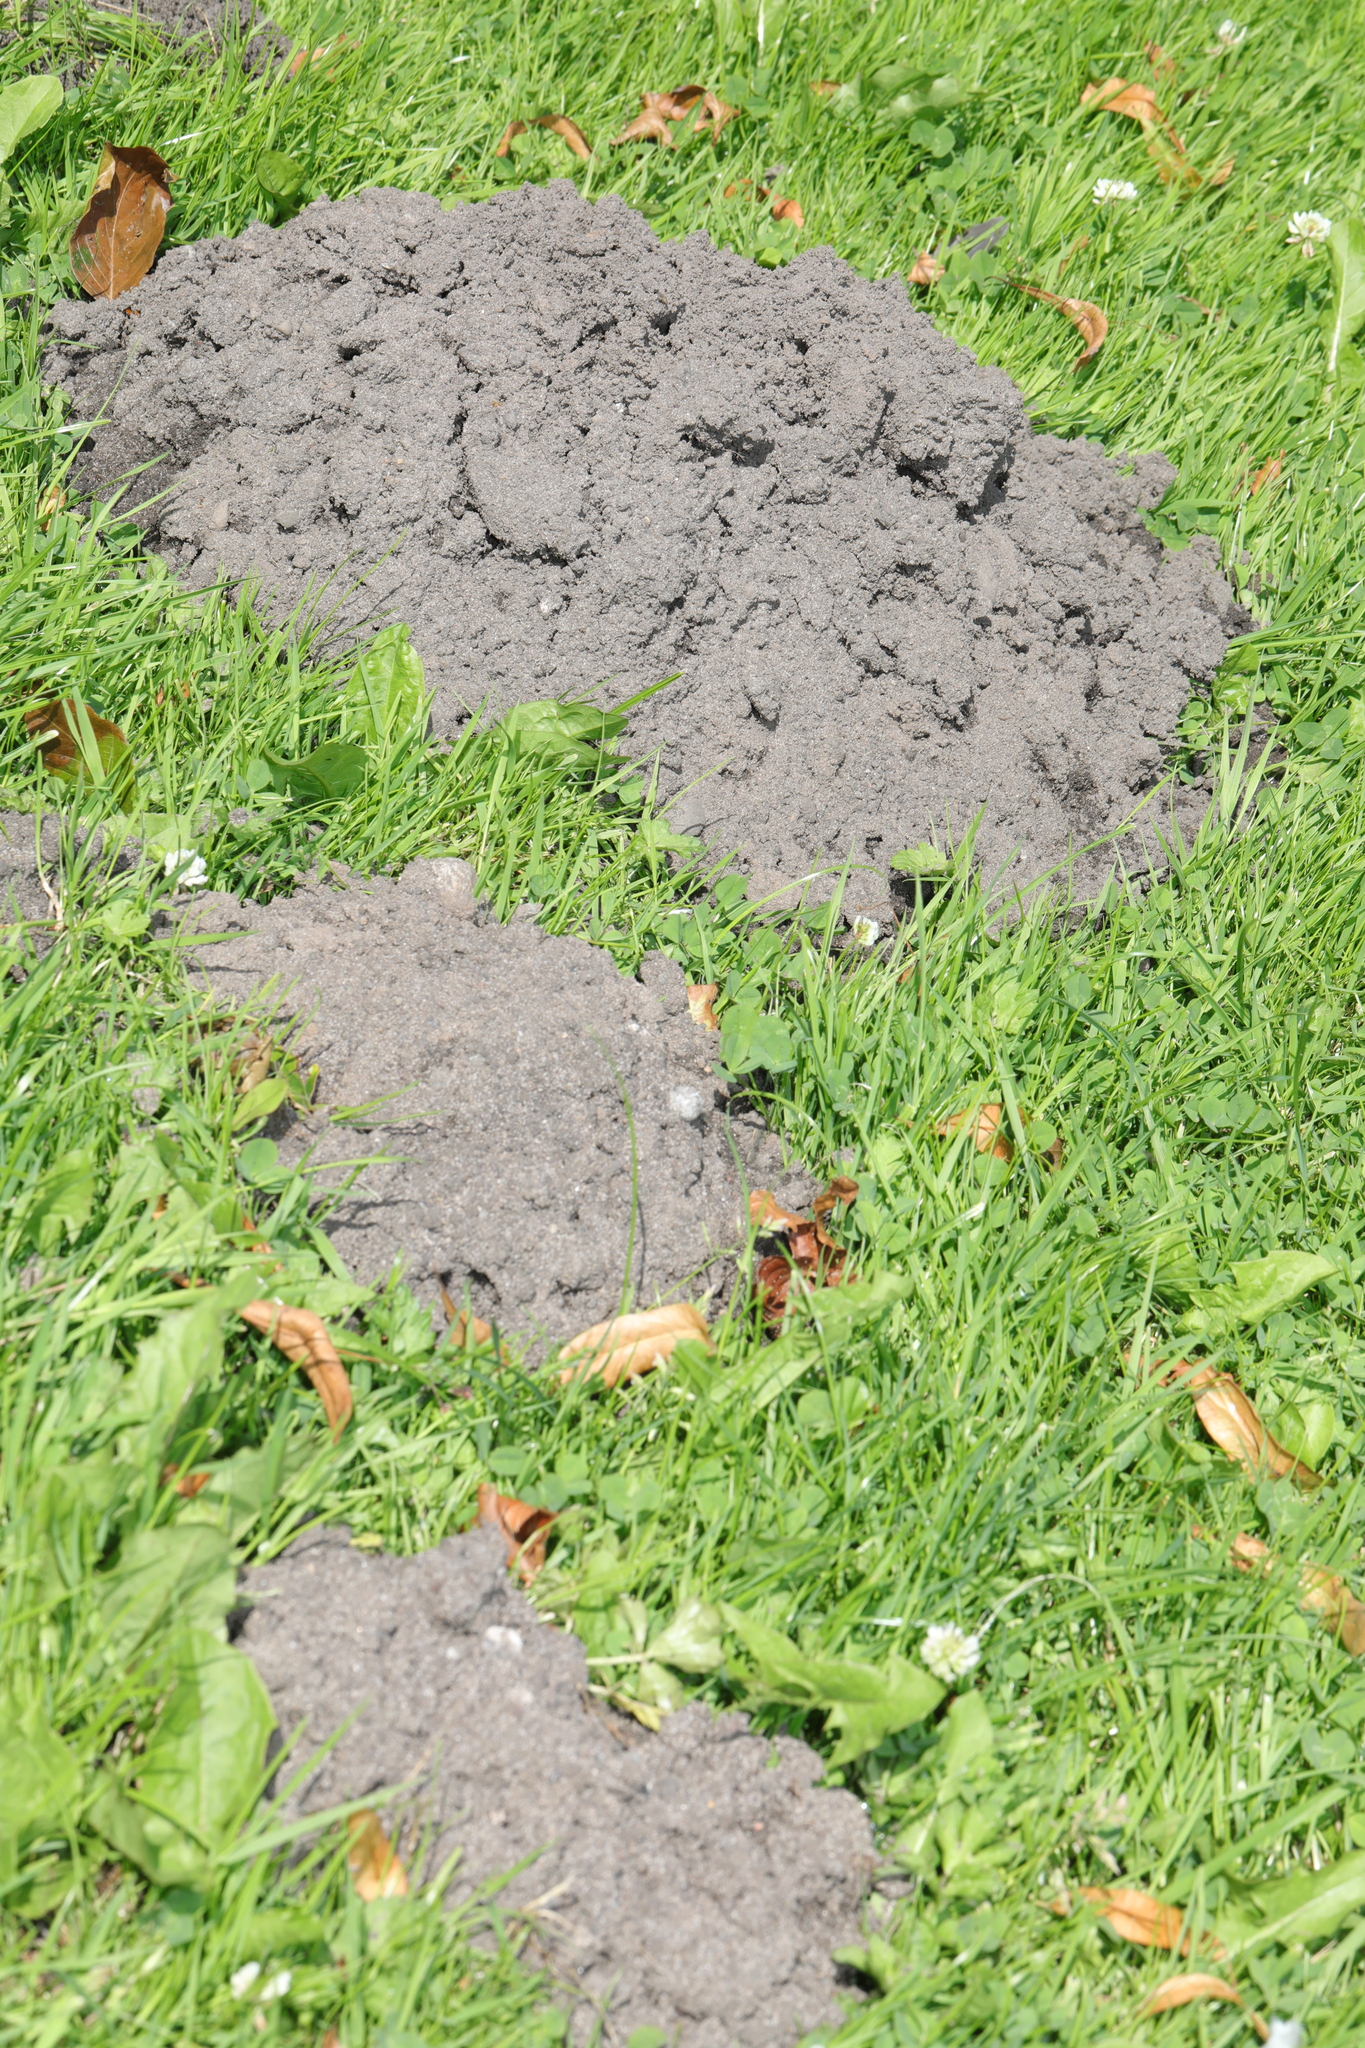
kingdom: Animalia
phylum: Chordata
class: Mammalia
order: Soricomorpha
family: Talpidae
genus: Talpa
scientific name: Talpa europaea
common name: European mole
